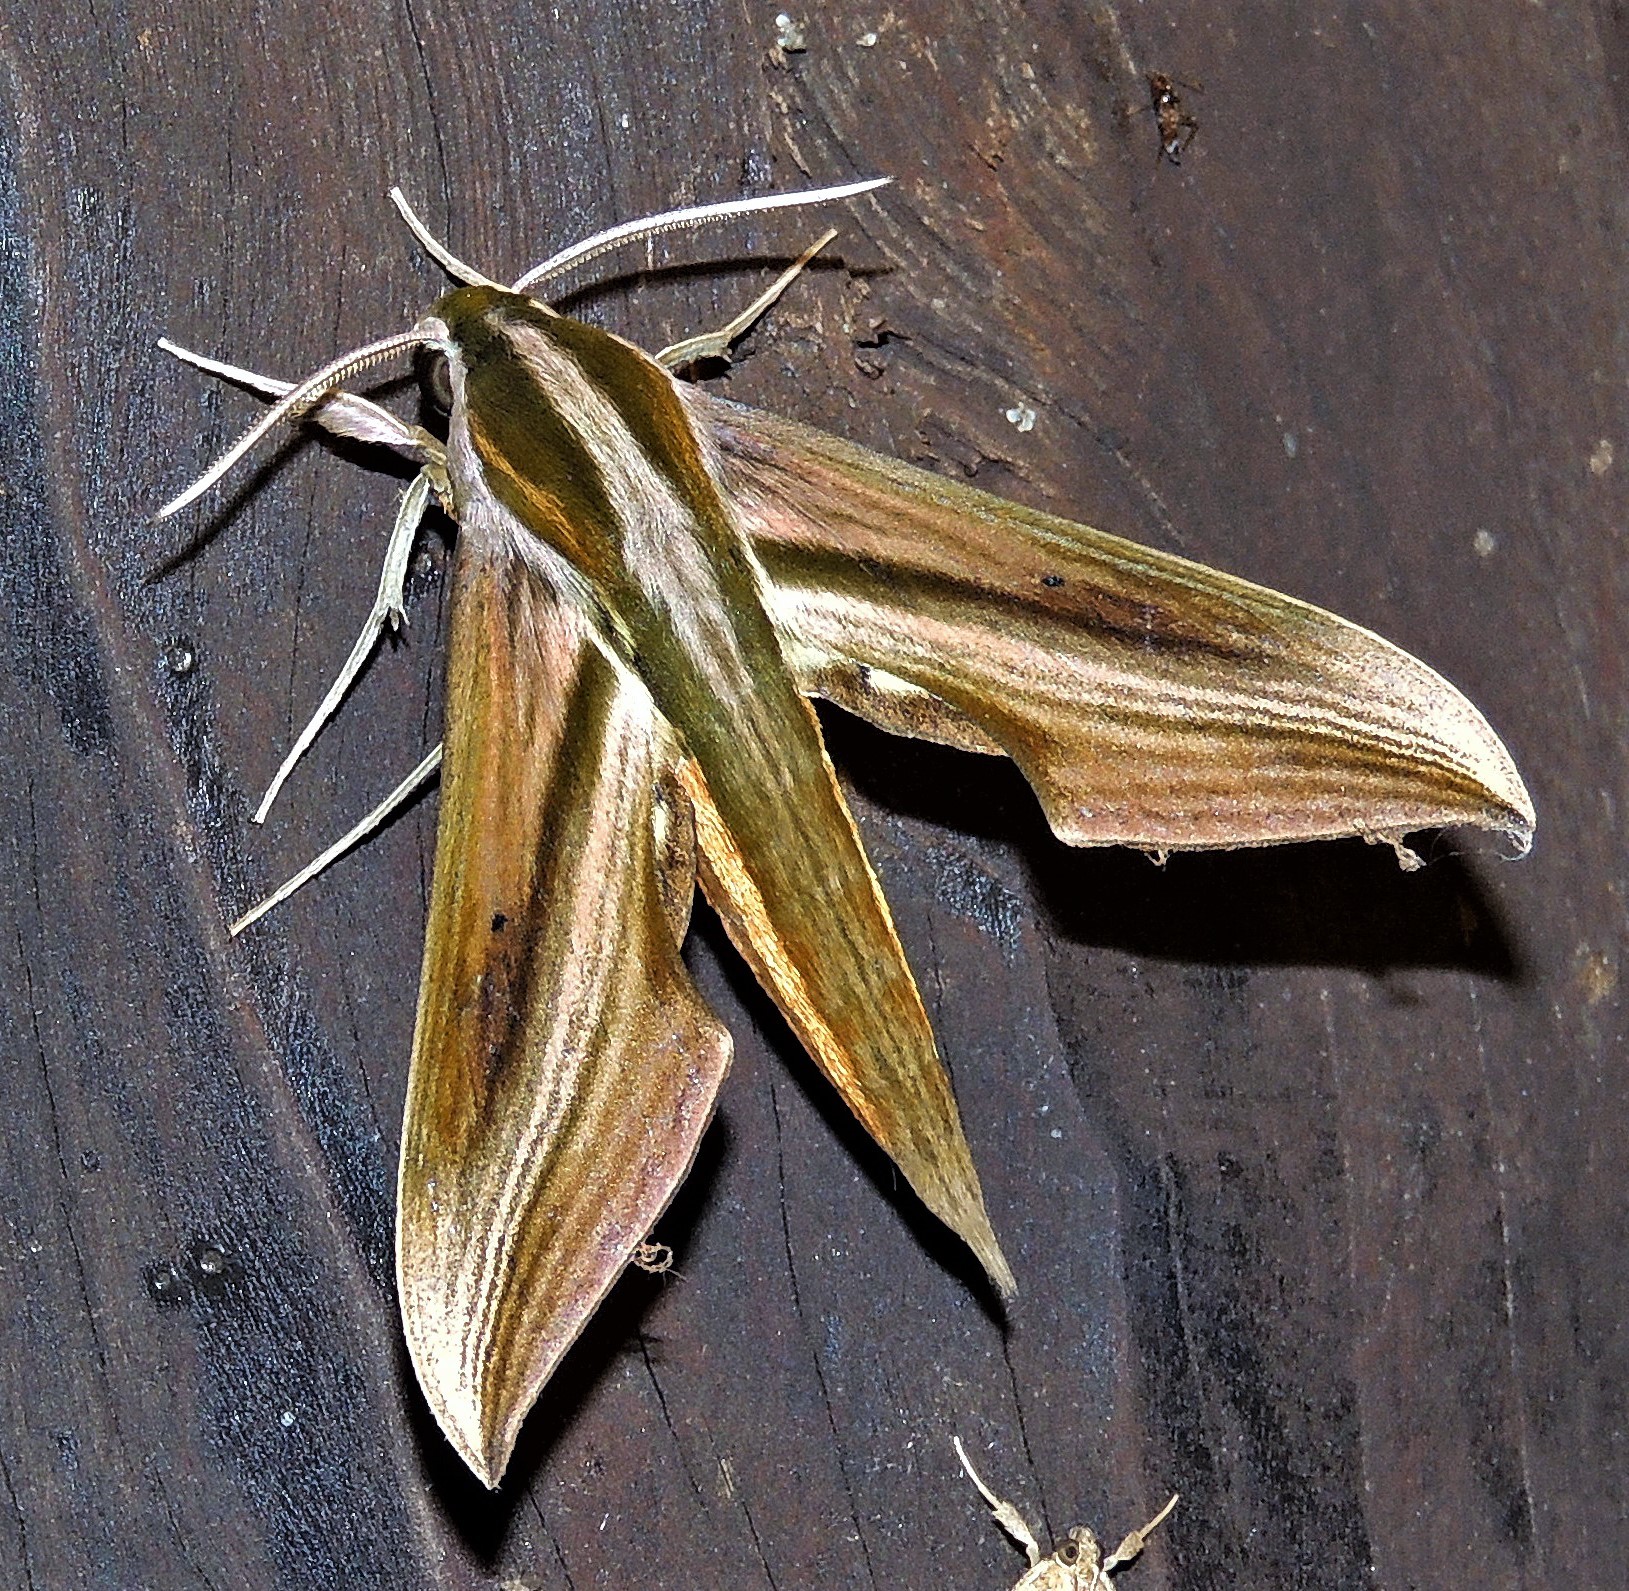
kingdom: Animalia
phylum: Arthropoda
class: Insecta
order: Lepidoptera
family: Sphingidae
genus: Xylophanes
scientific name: Xylophanes schreiteri
